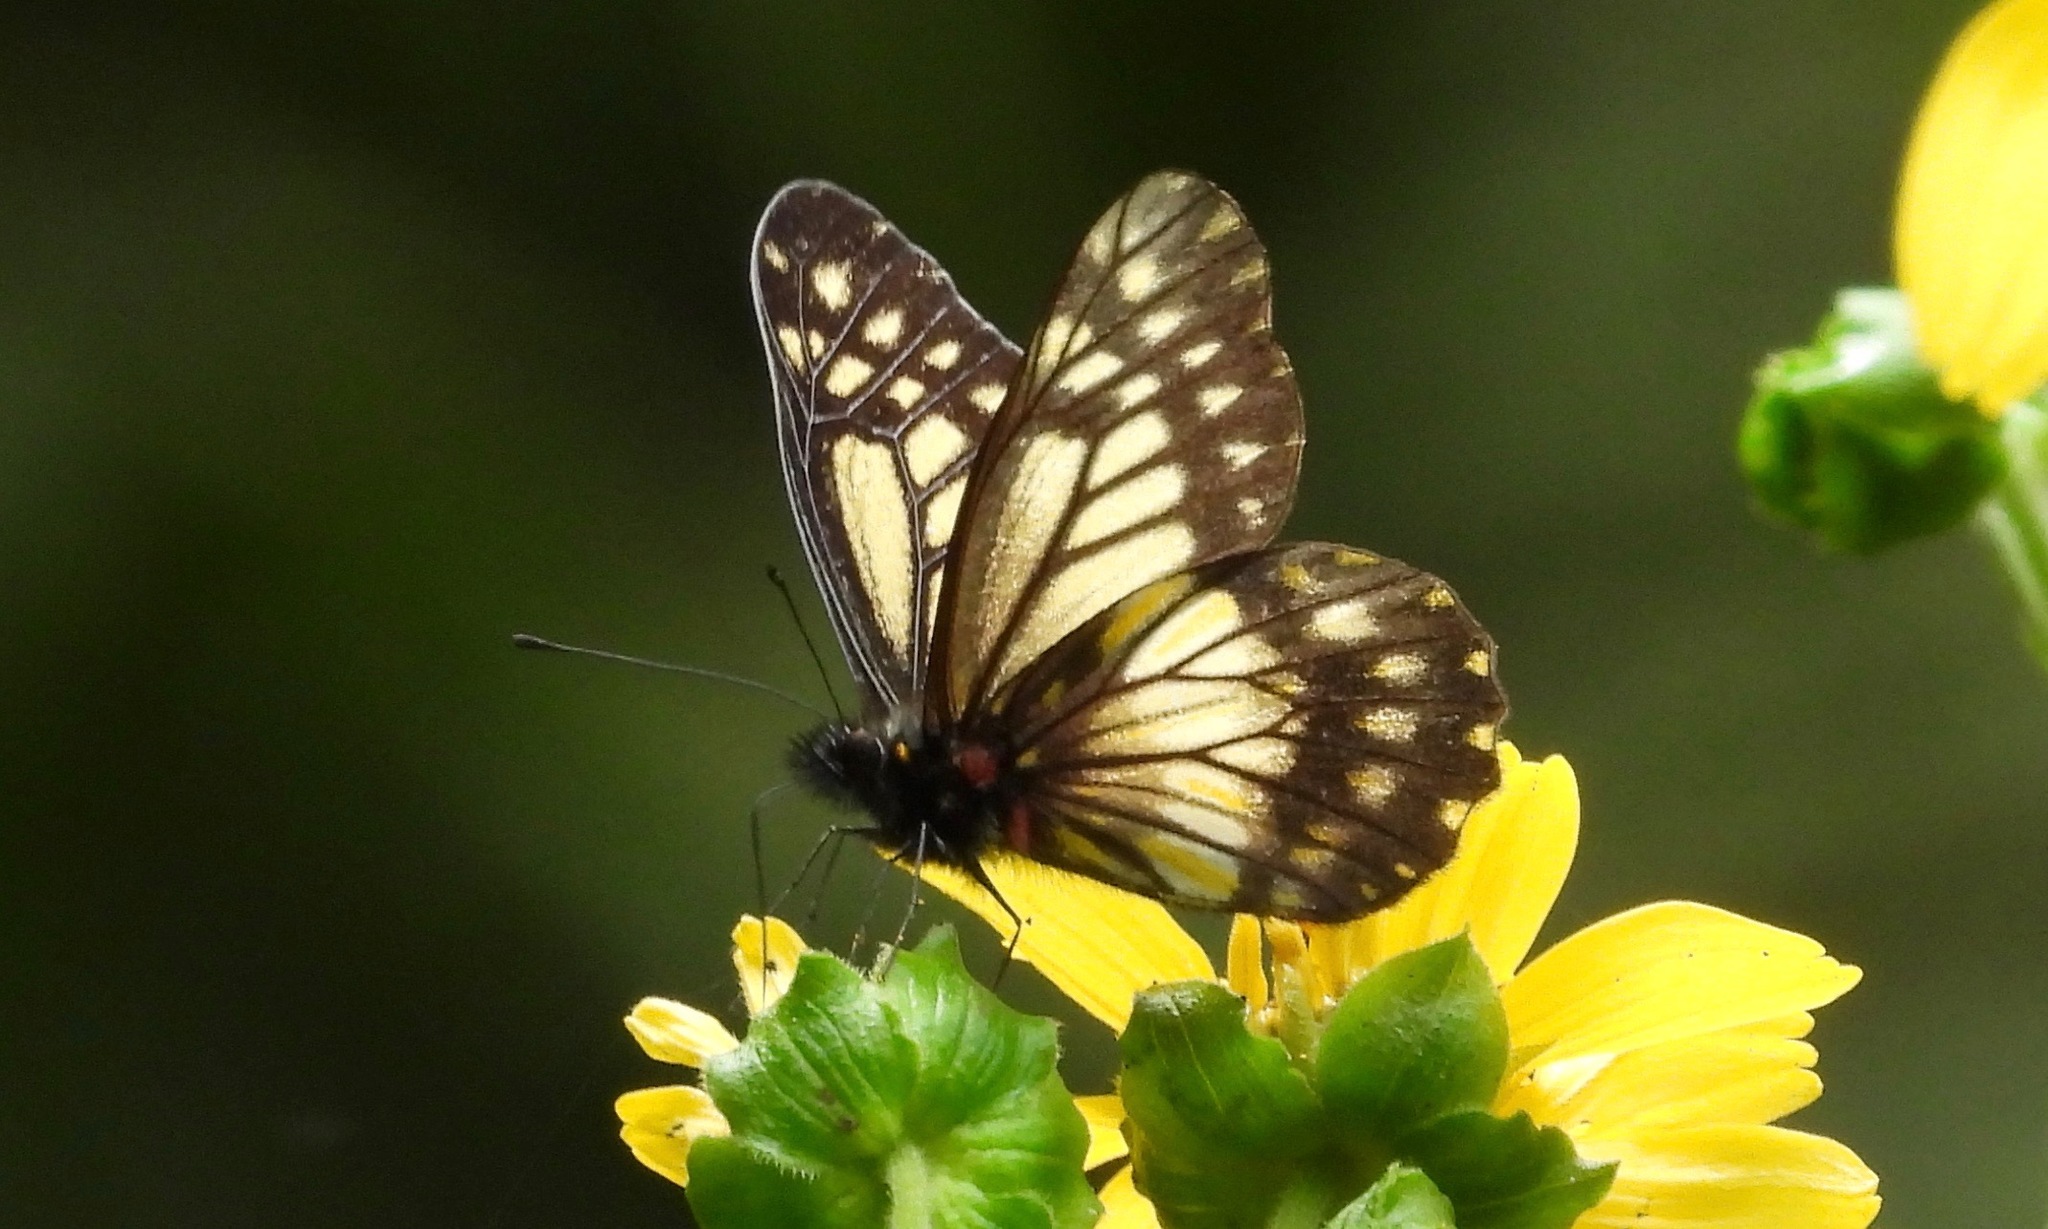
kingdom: Animalia
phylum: Arthropoda
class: Insecta
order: Lepidoptera
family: Pieridae
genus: Archonias
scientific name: Archonias nimbice
